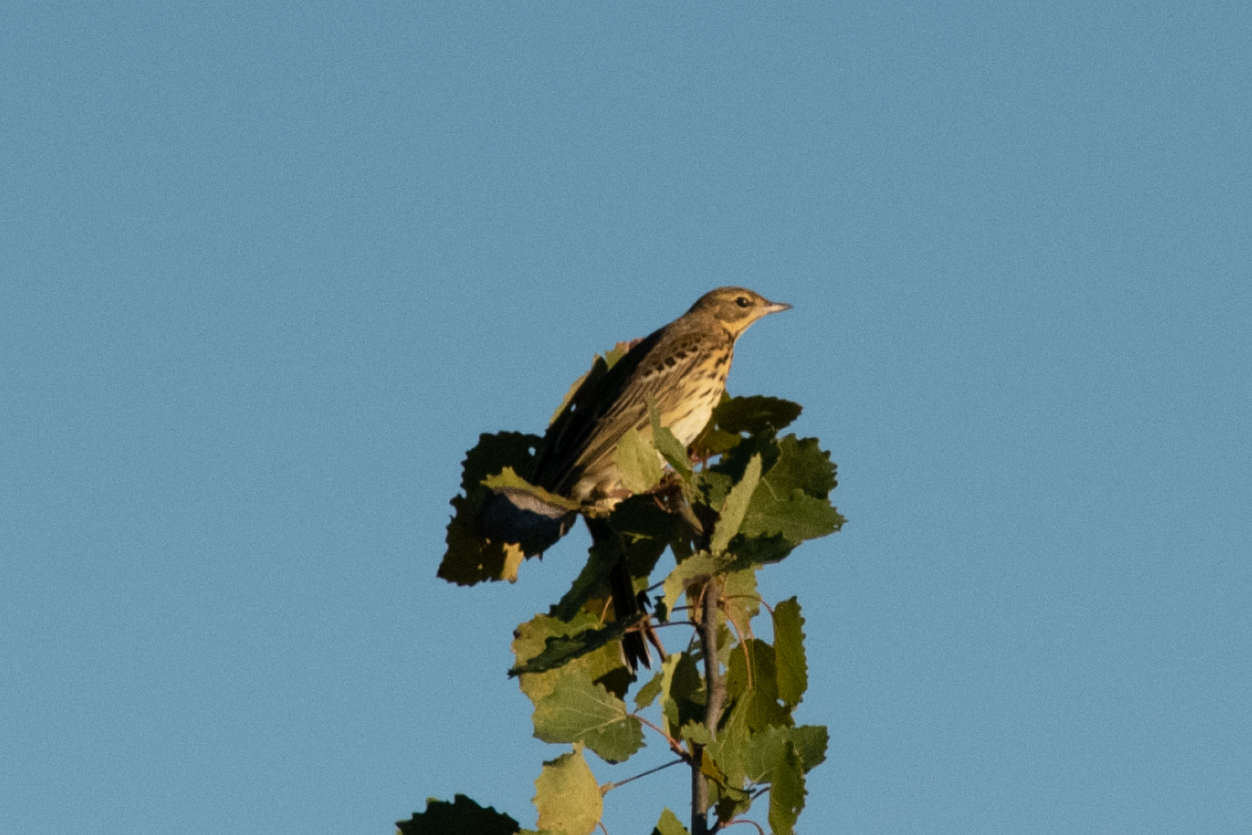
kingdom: Animalia
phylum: Chordata
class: Aves
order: Passeriformes
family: Motacillidae
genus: Anthus
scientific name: Anthus trivialis
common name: Tree pipit
